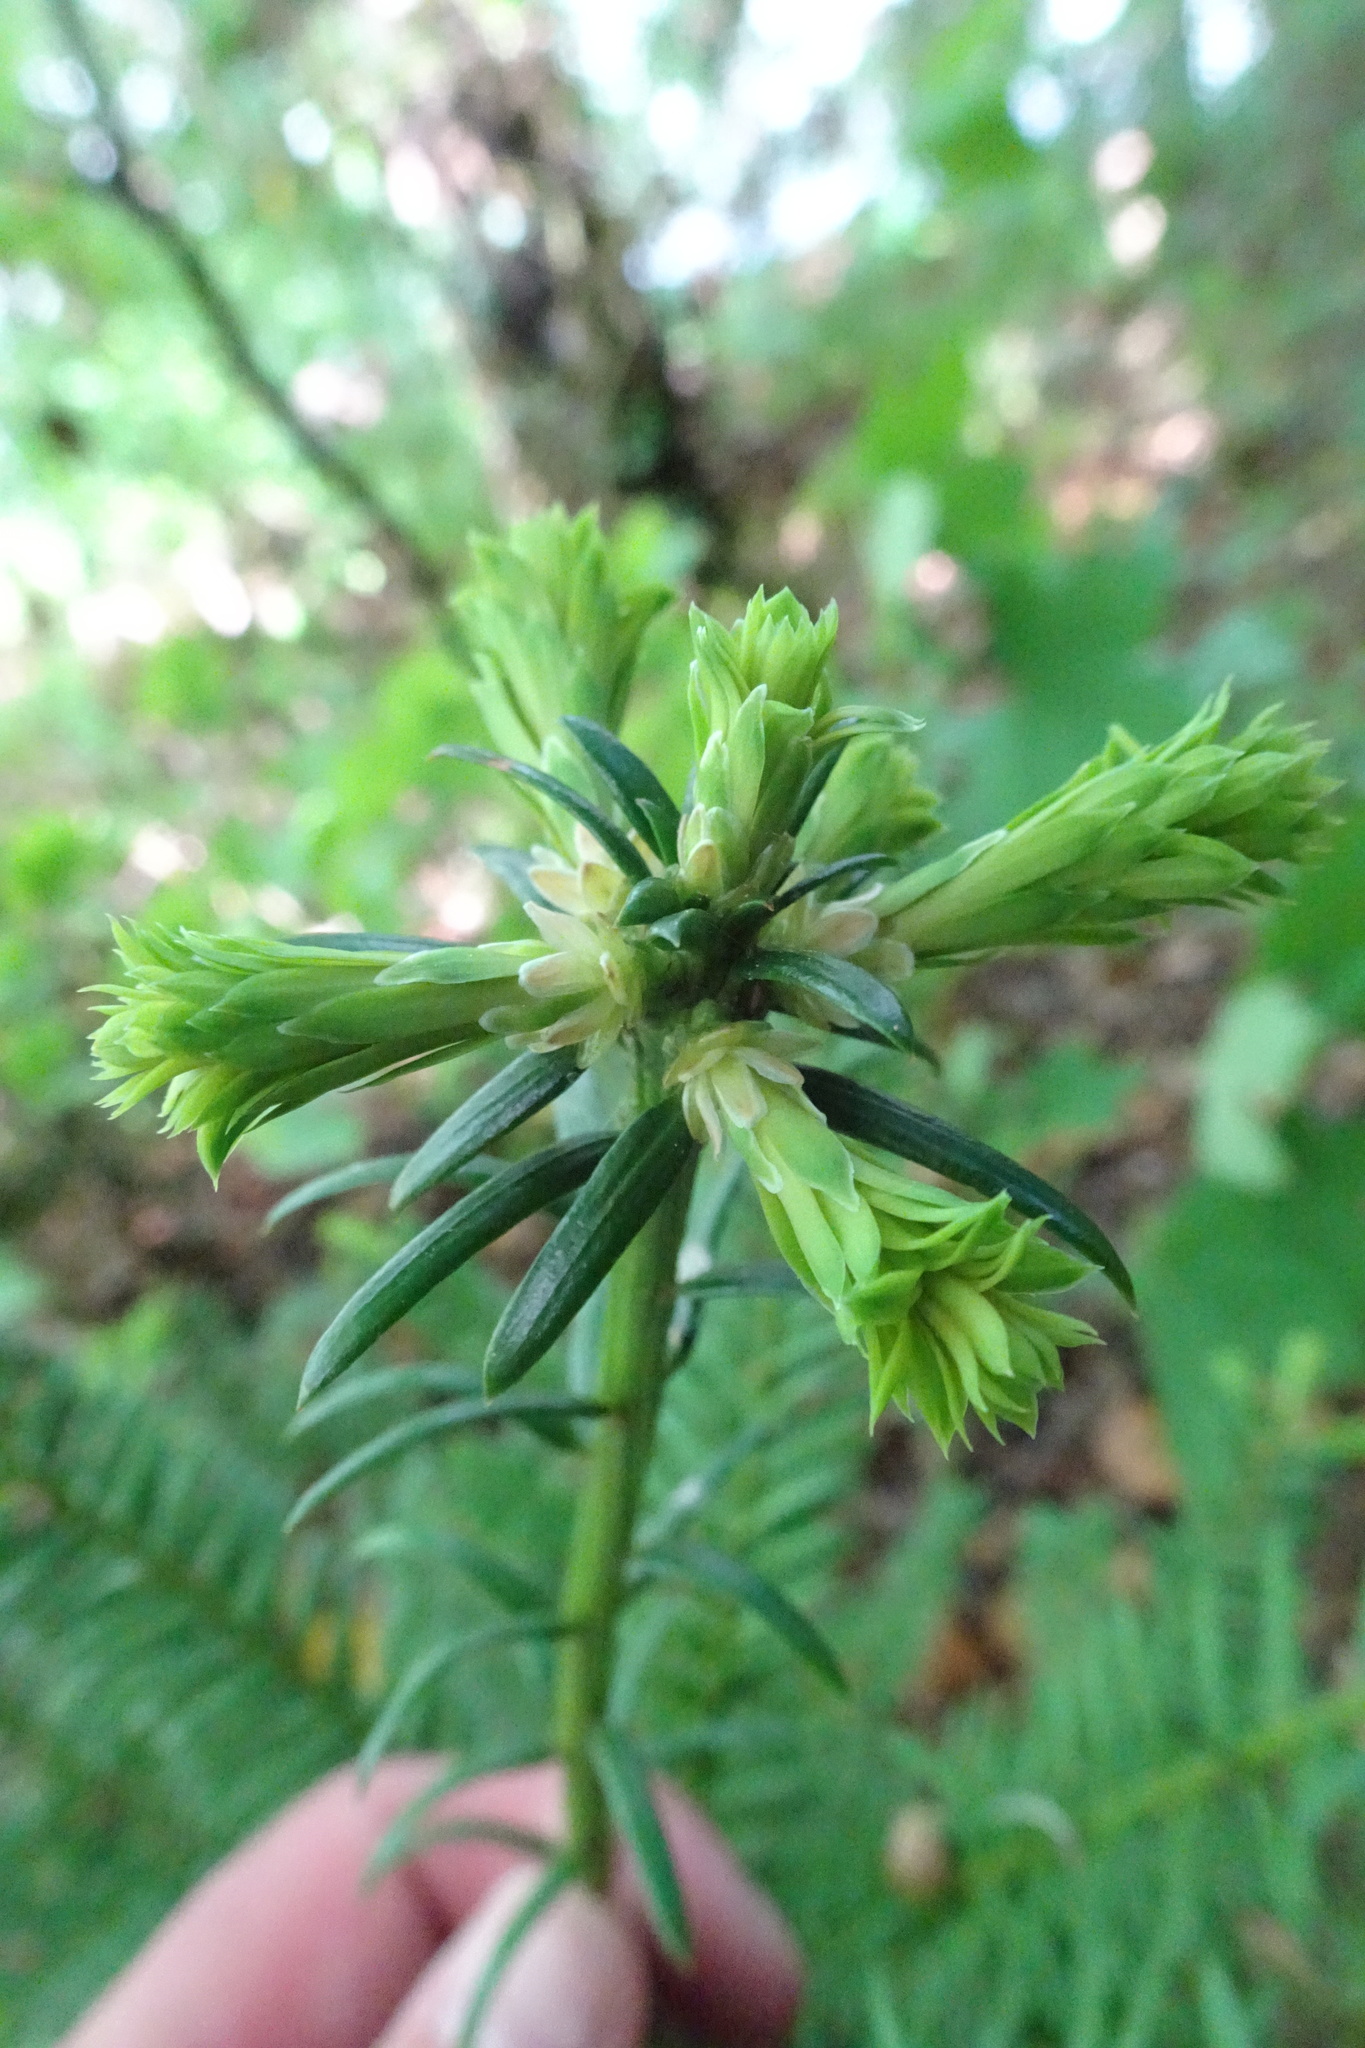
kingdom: Plantae
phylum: Tracheophyta
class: Pinopsida
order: Pinales
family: Taxaceae
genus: Taxus
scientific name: Taxus baccata
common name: Yew
